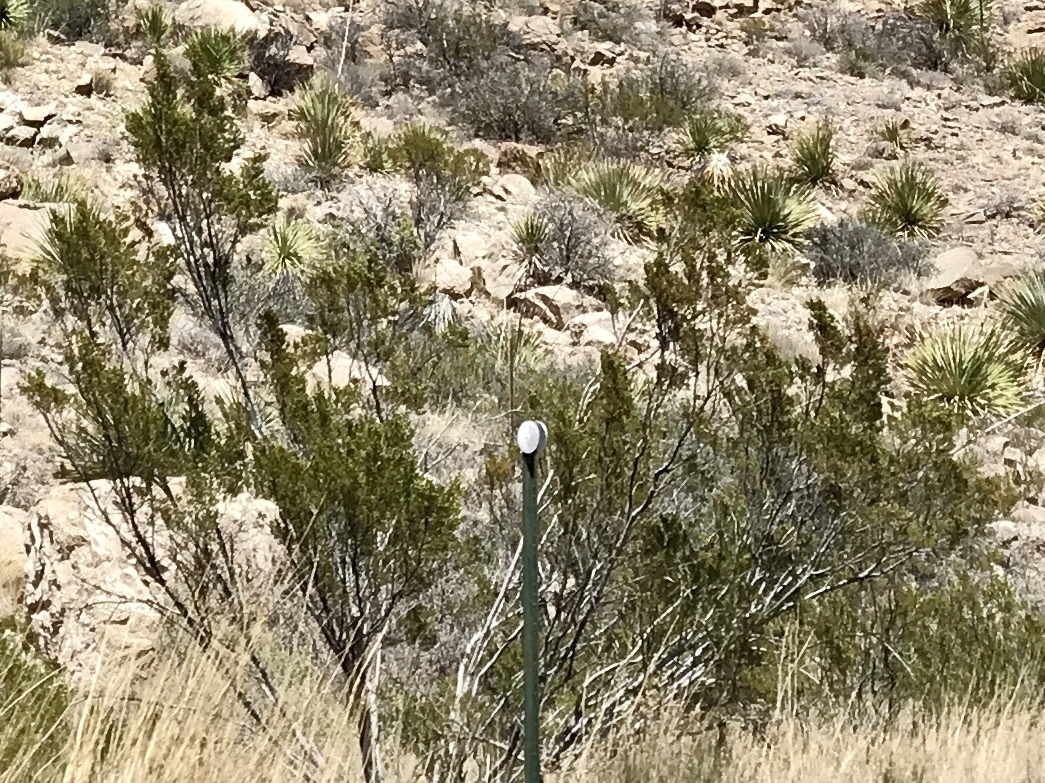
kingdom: Plantae
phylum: Tracheophyta
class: Magnoliopsida
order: Zygophyllales
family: Zygophyllaceae
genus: Larrea
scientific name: Larrea tridentata
